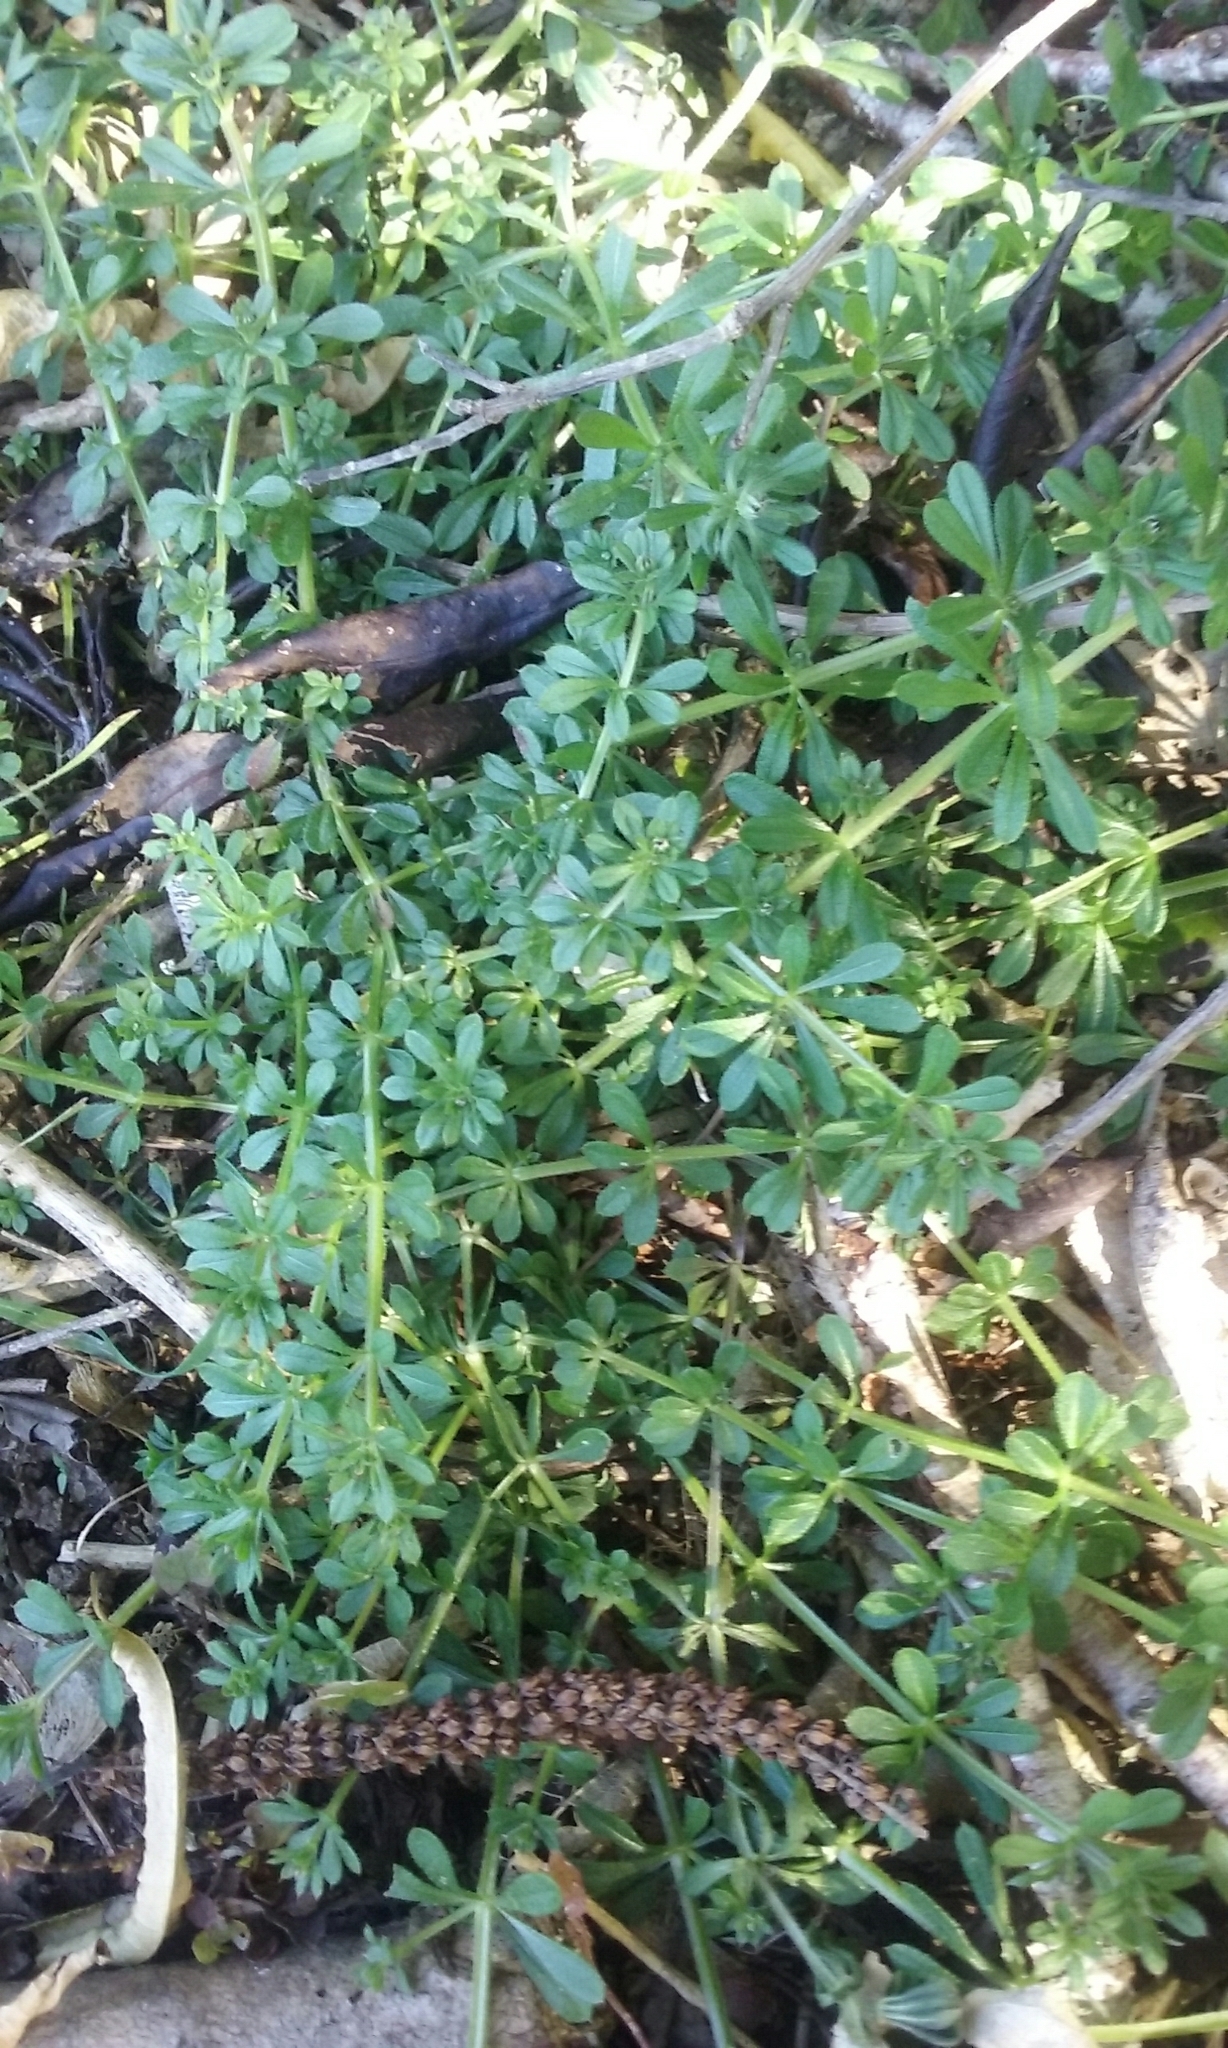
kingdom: Plantae
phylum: Tracheophyta
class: Magnoliopsida
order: Gentianales
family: Rubiaceae
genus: Galium
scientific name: Galium aparine
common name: Cleavers
